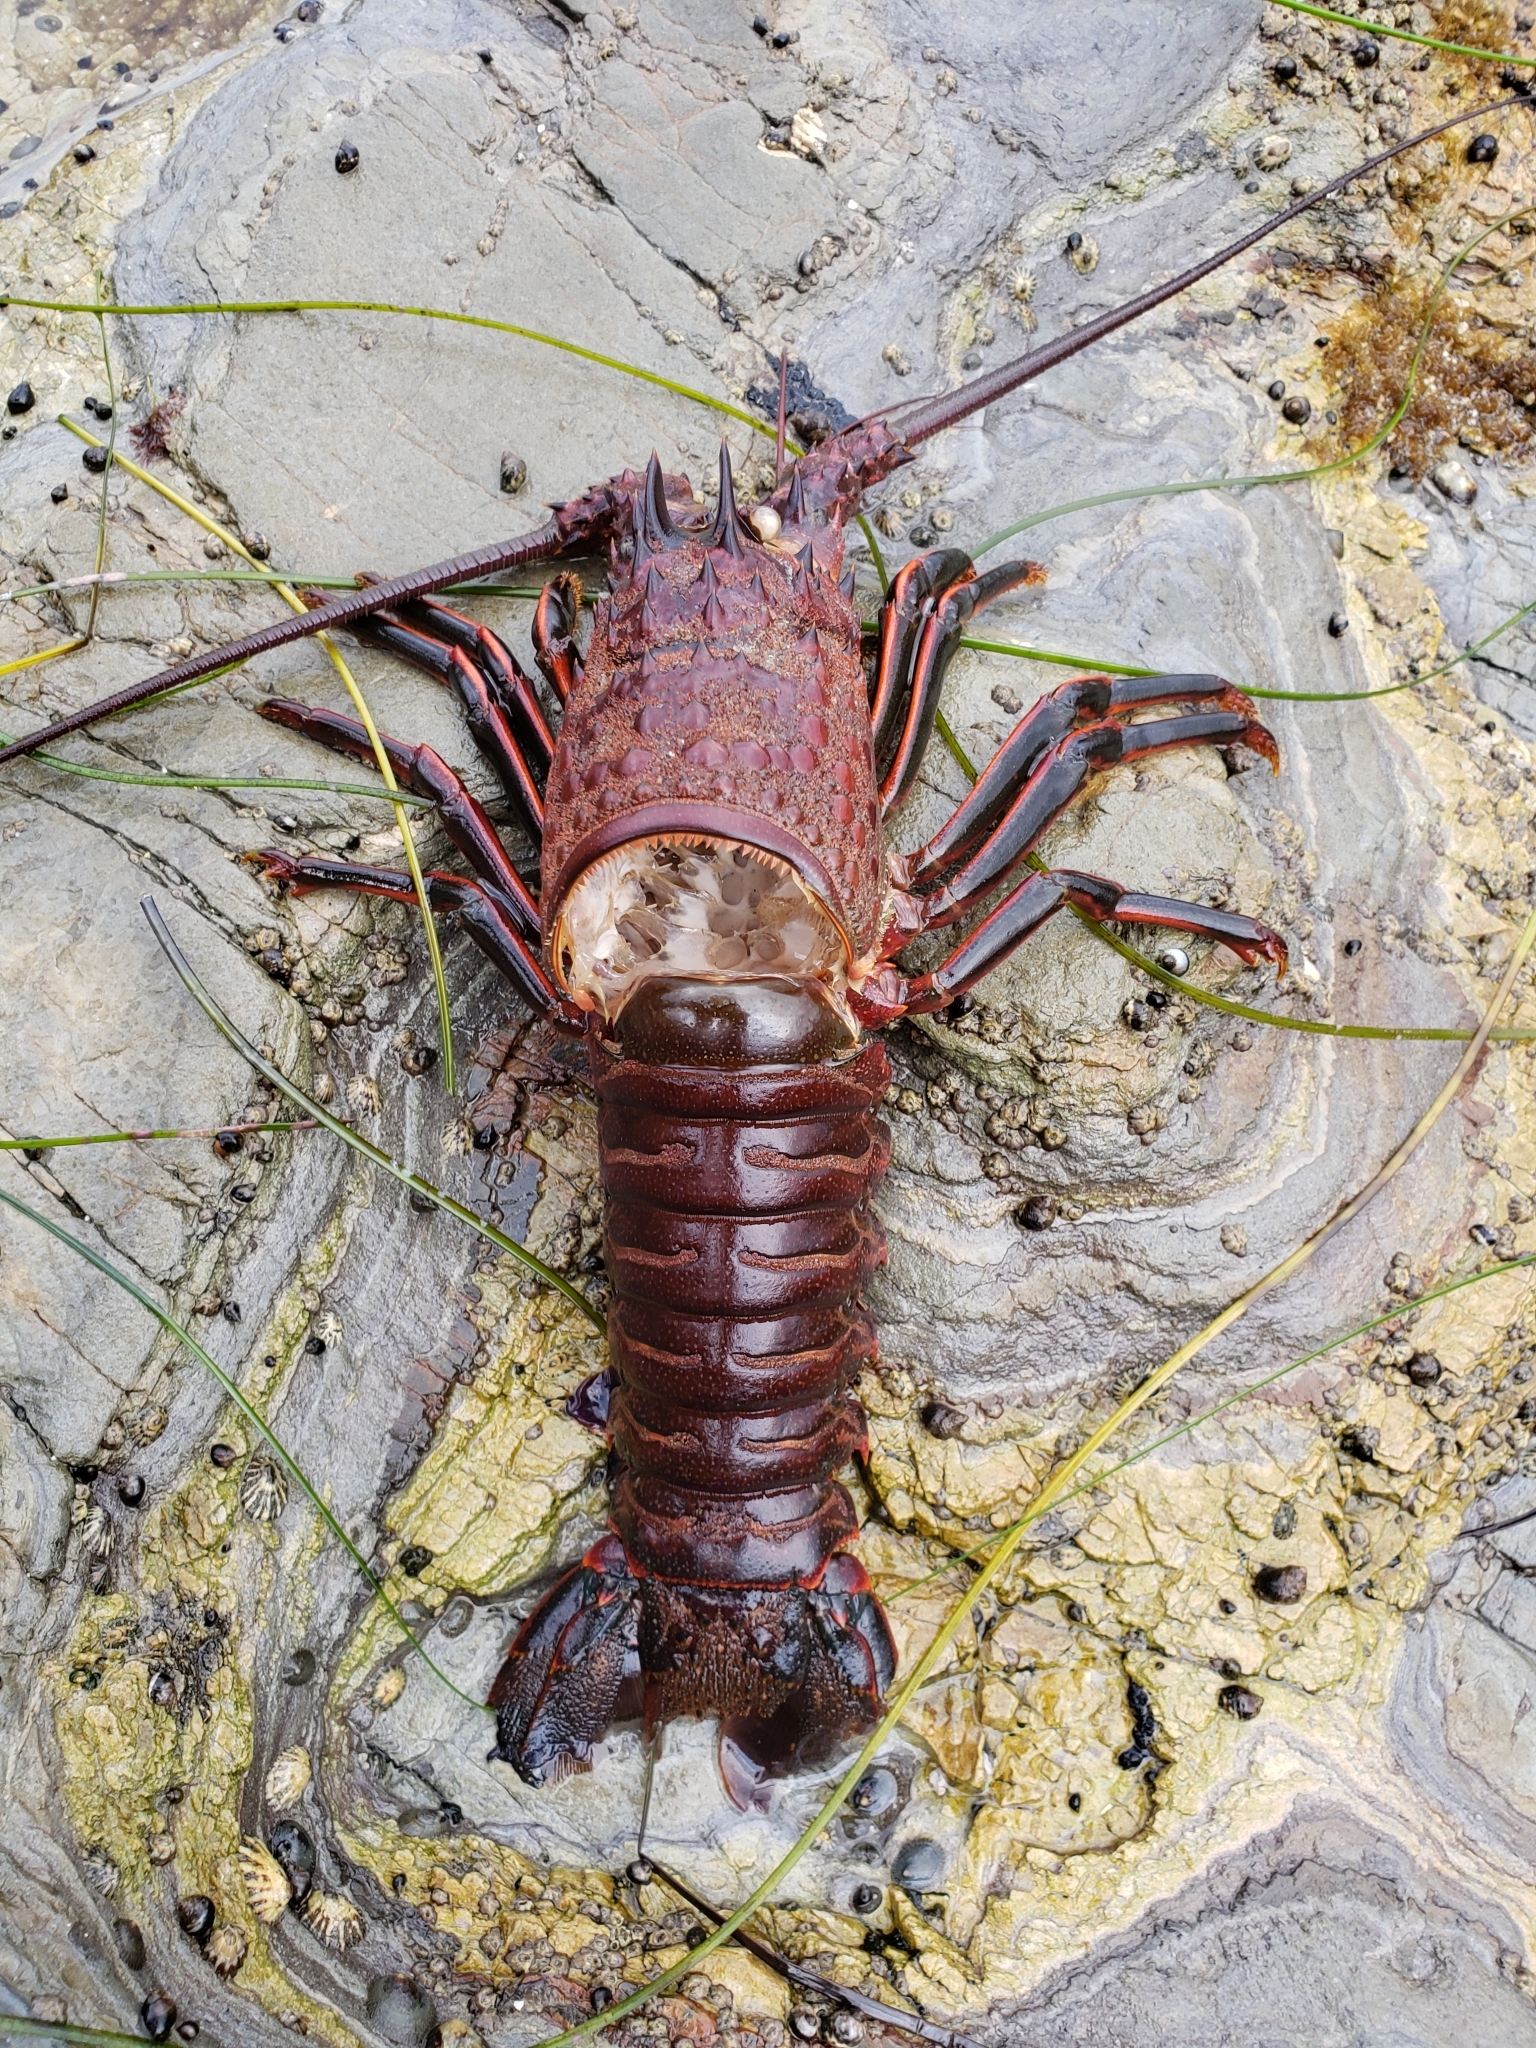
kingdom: Animalia
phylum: Arthropoda
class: Malacostraca
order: Decapoda
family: Palinuridae
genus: Panulirus
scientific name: Panulirus interruptus
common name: California spiny lobster
